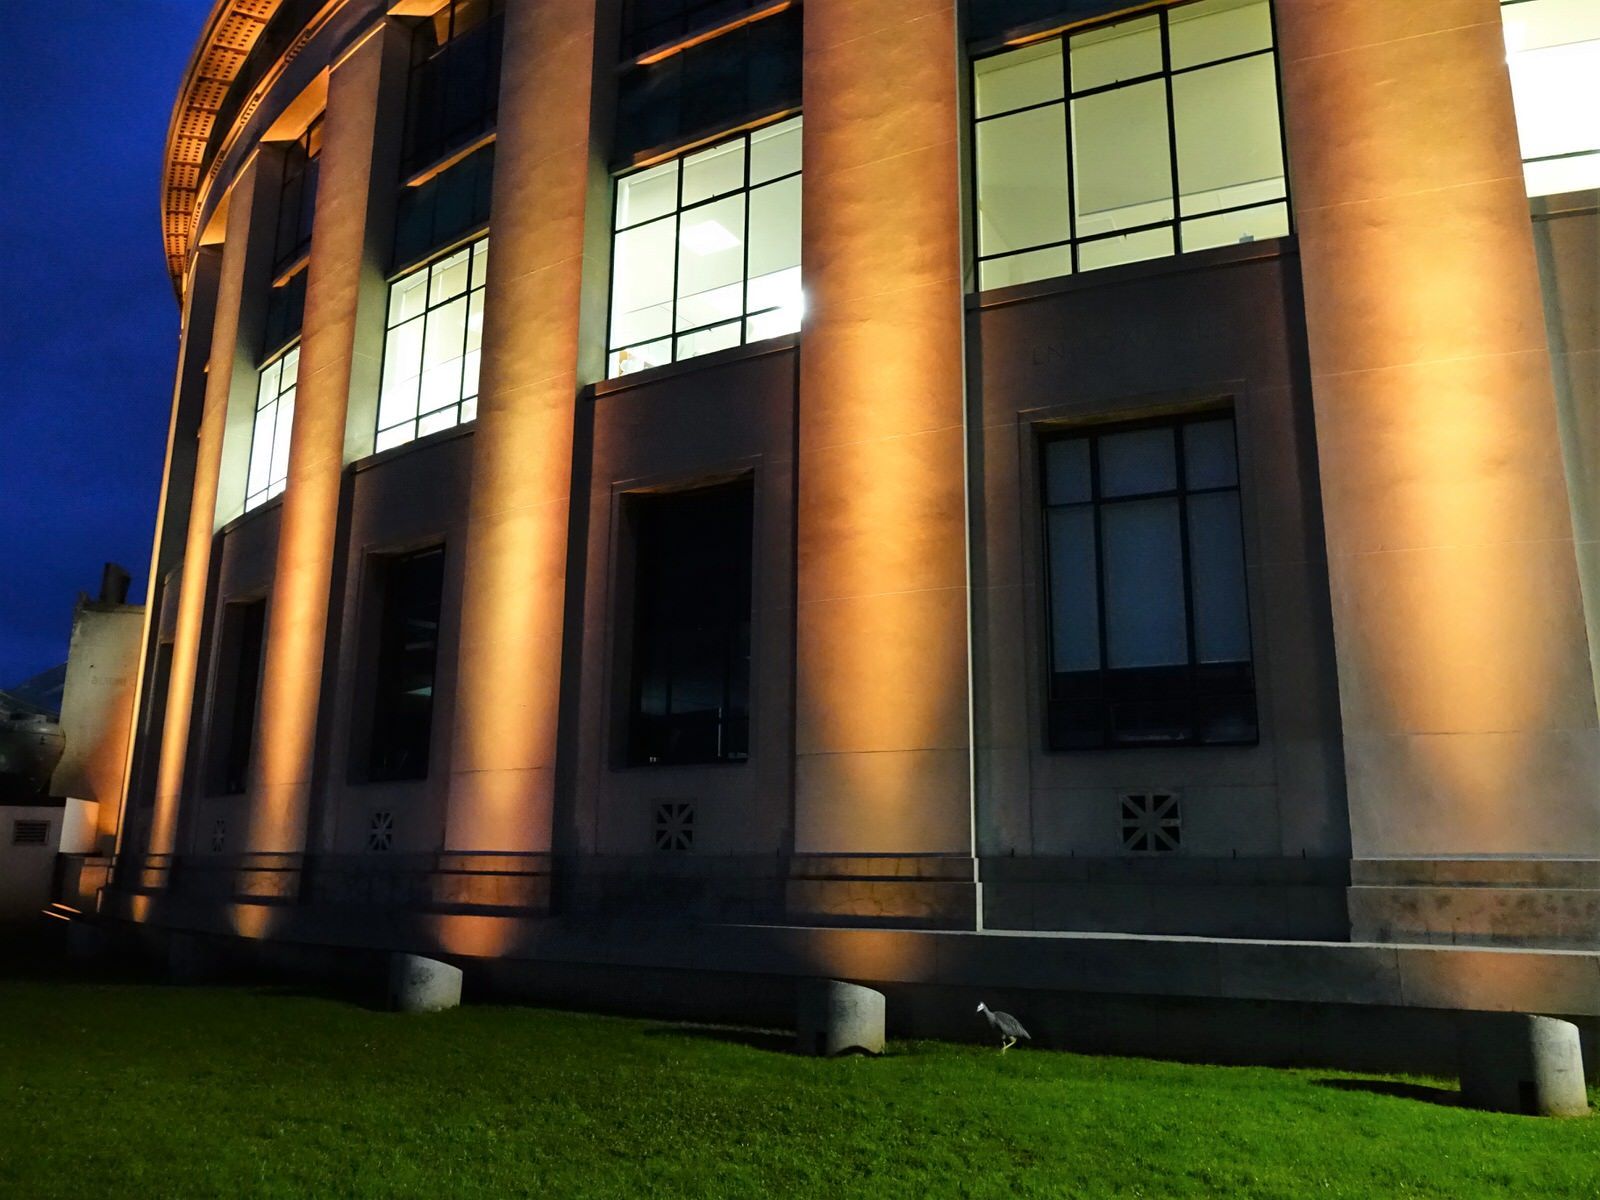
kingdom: Animalia
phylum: Chordata
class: Aves
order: Pelecaniformes
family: Ardeidae
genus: Egretta
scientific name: Egretta novaehollandiae
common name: White-faced heron
